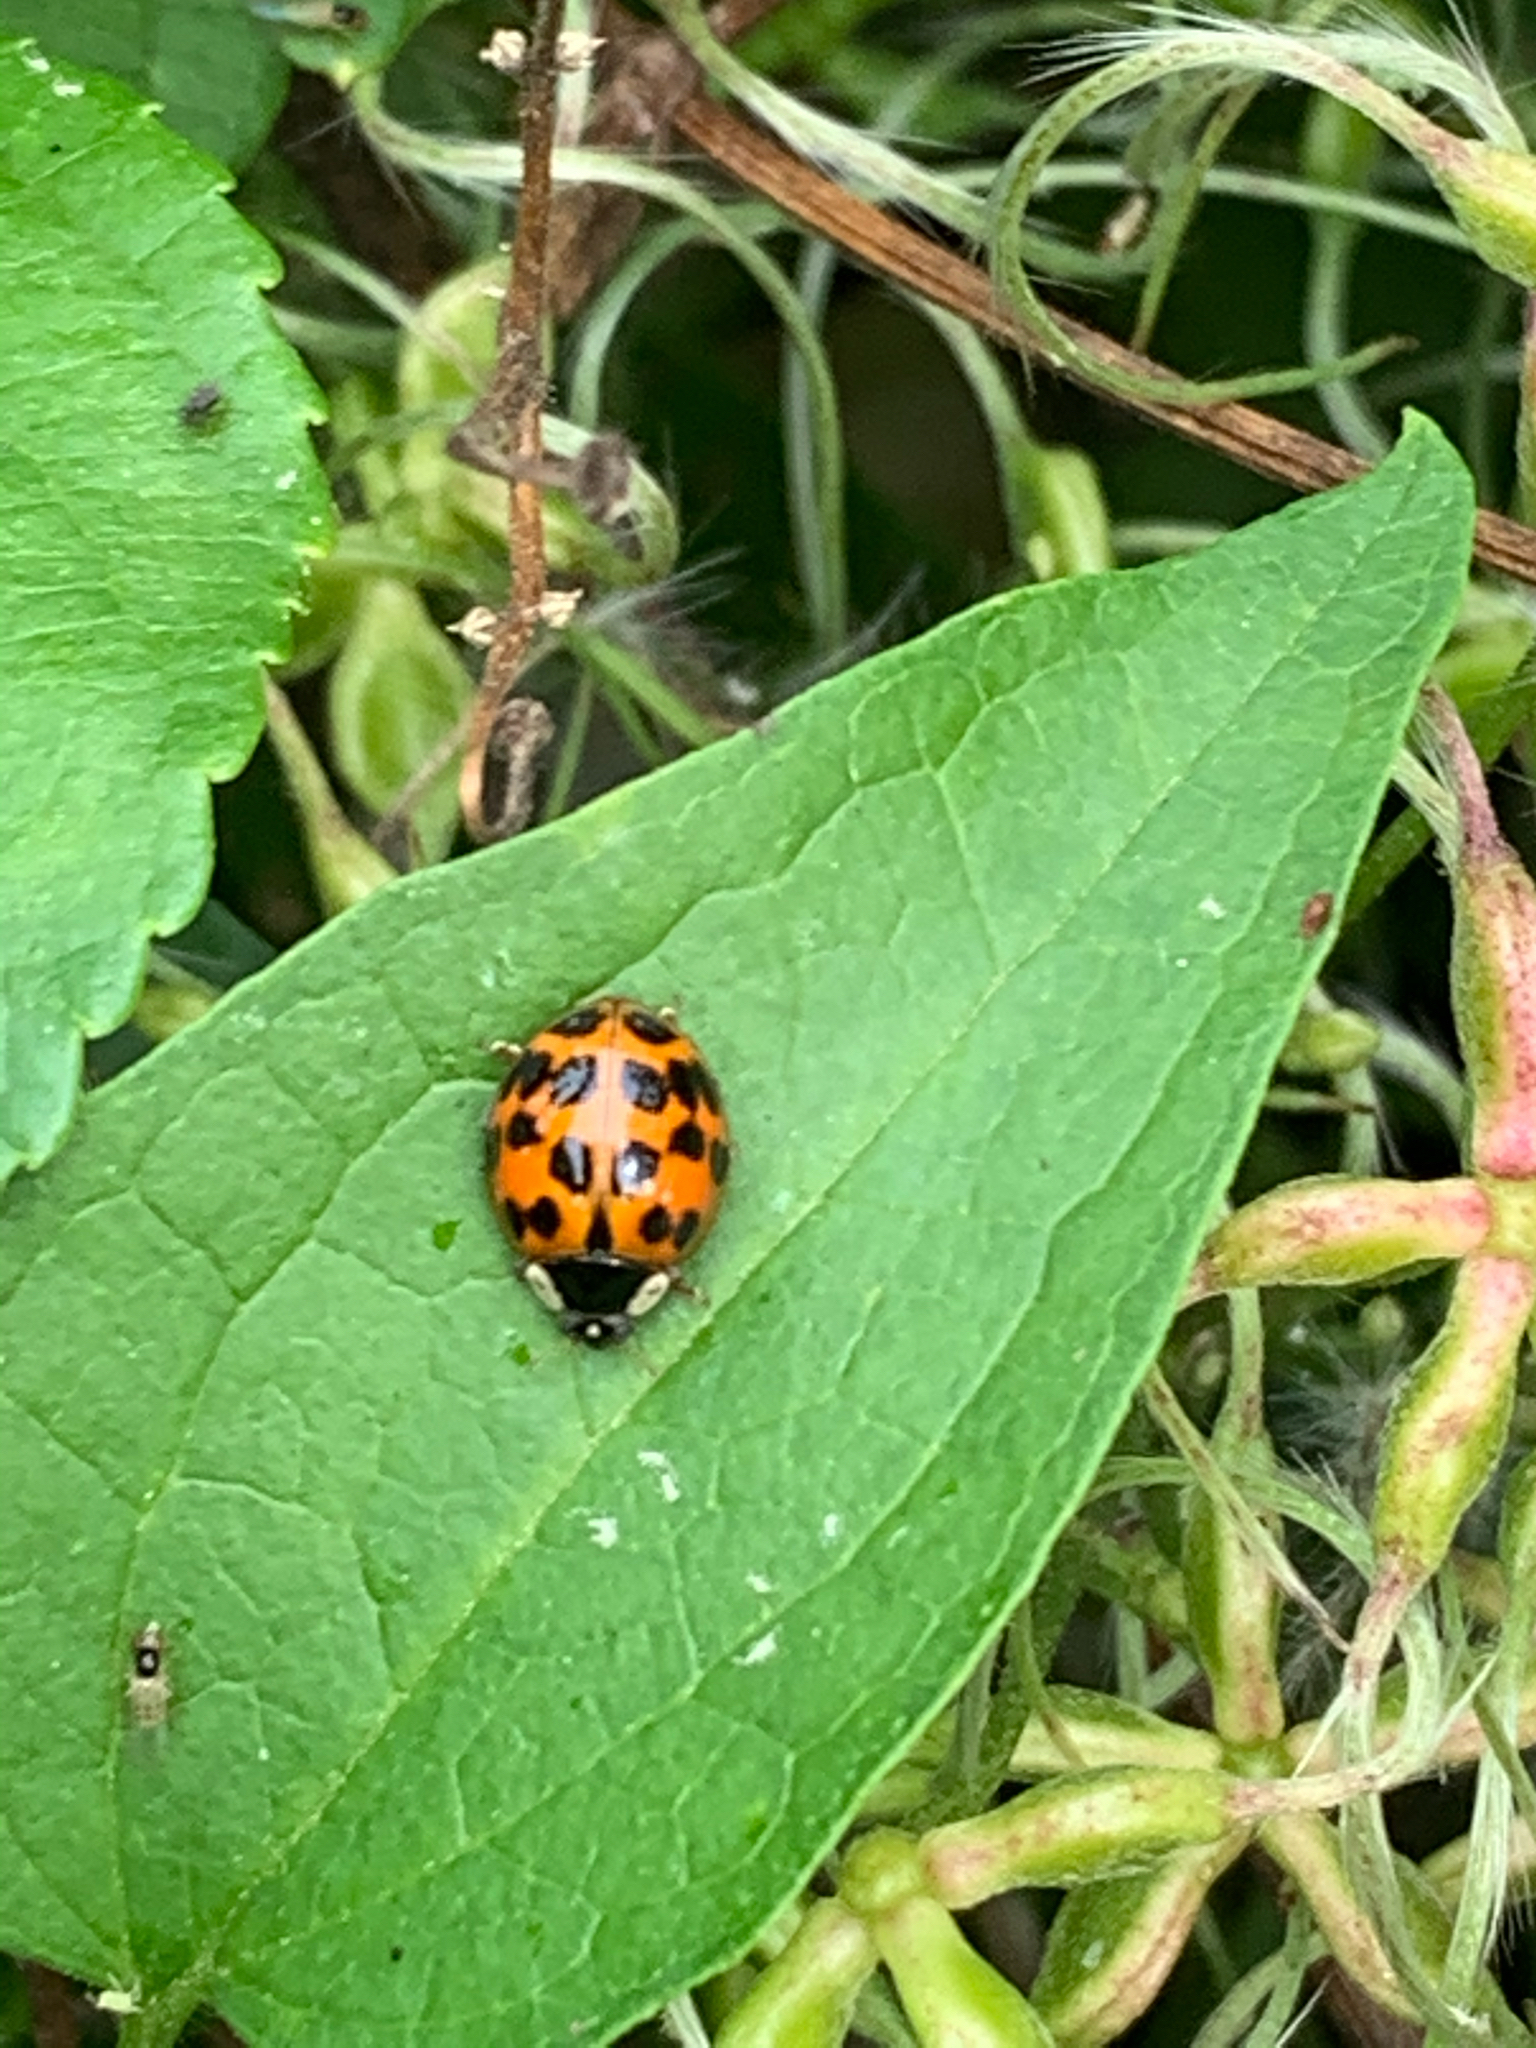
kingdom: Animalia
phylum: Arthropoda
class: Insecta
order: Coleoptera
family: Coccinellidae
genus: Harmonia
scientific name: Harmonia axyridis
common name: Harlequin ladybird
